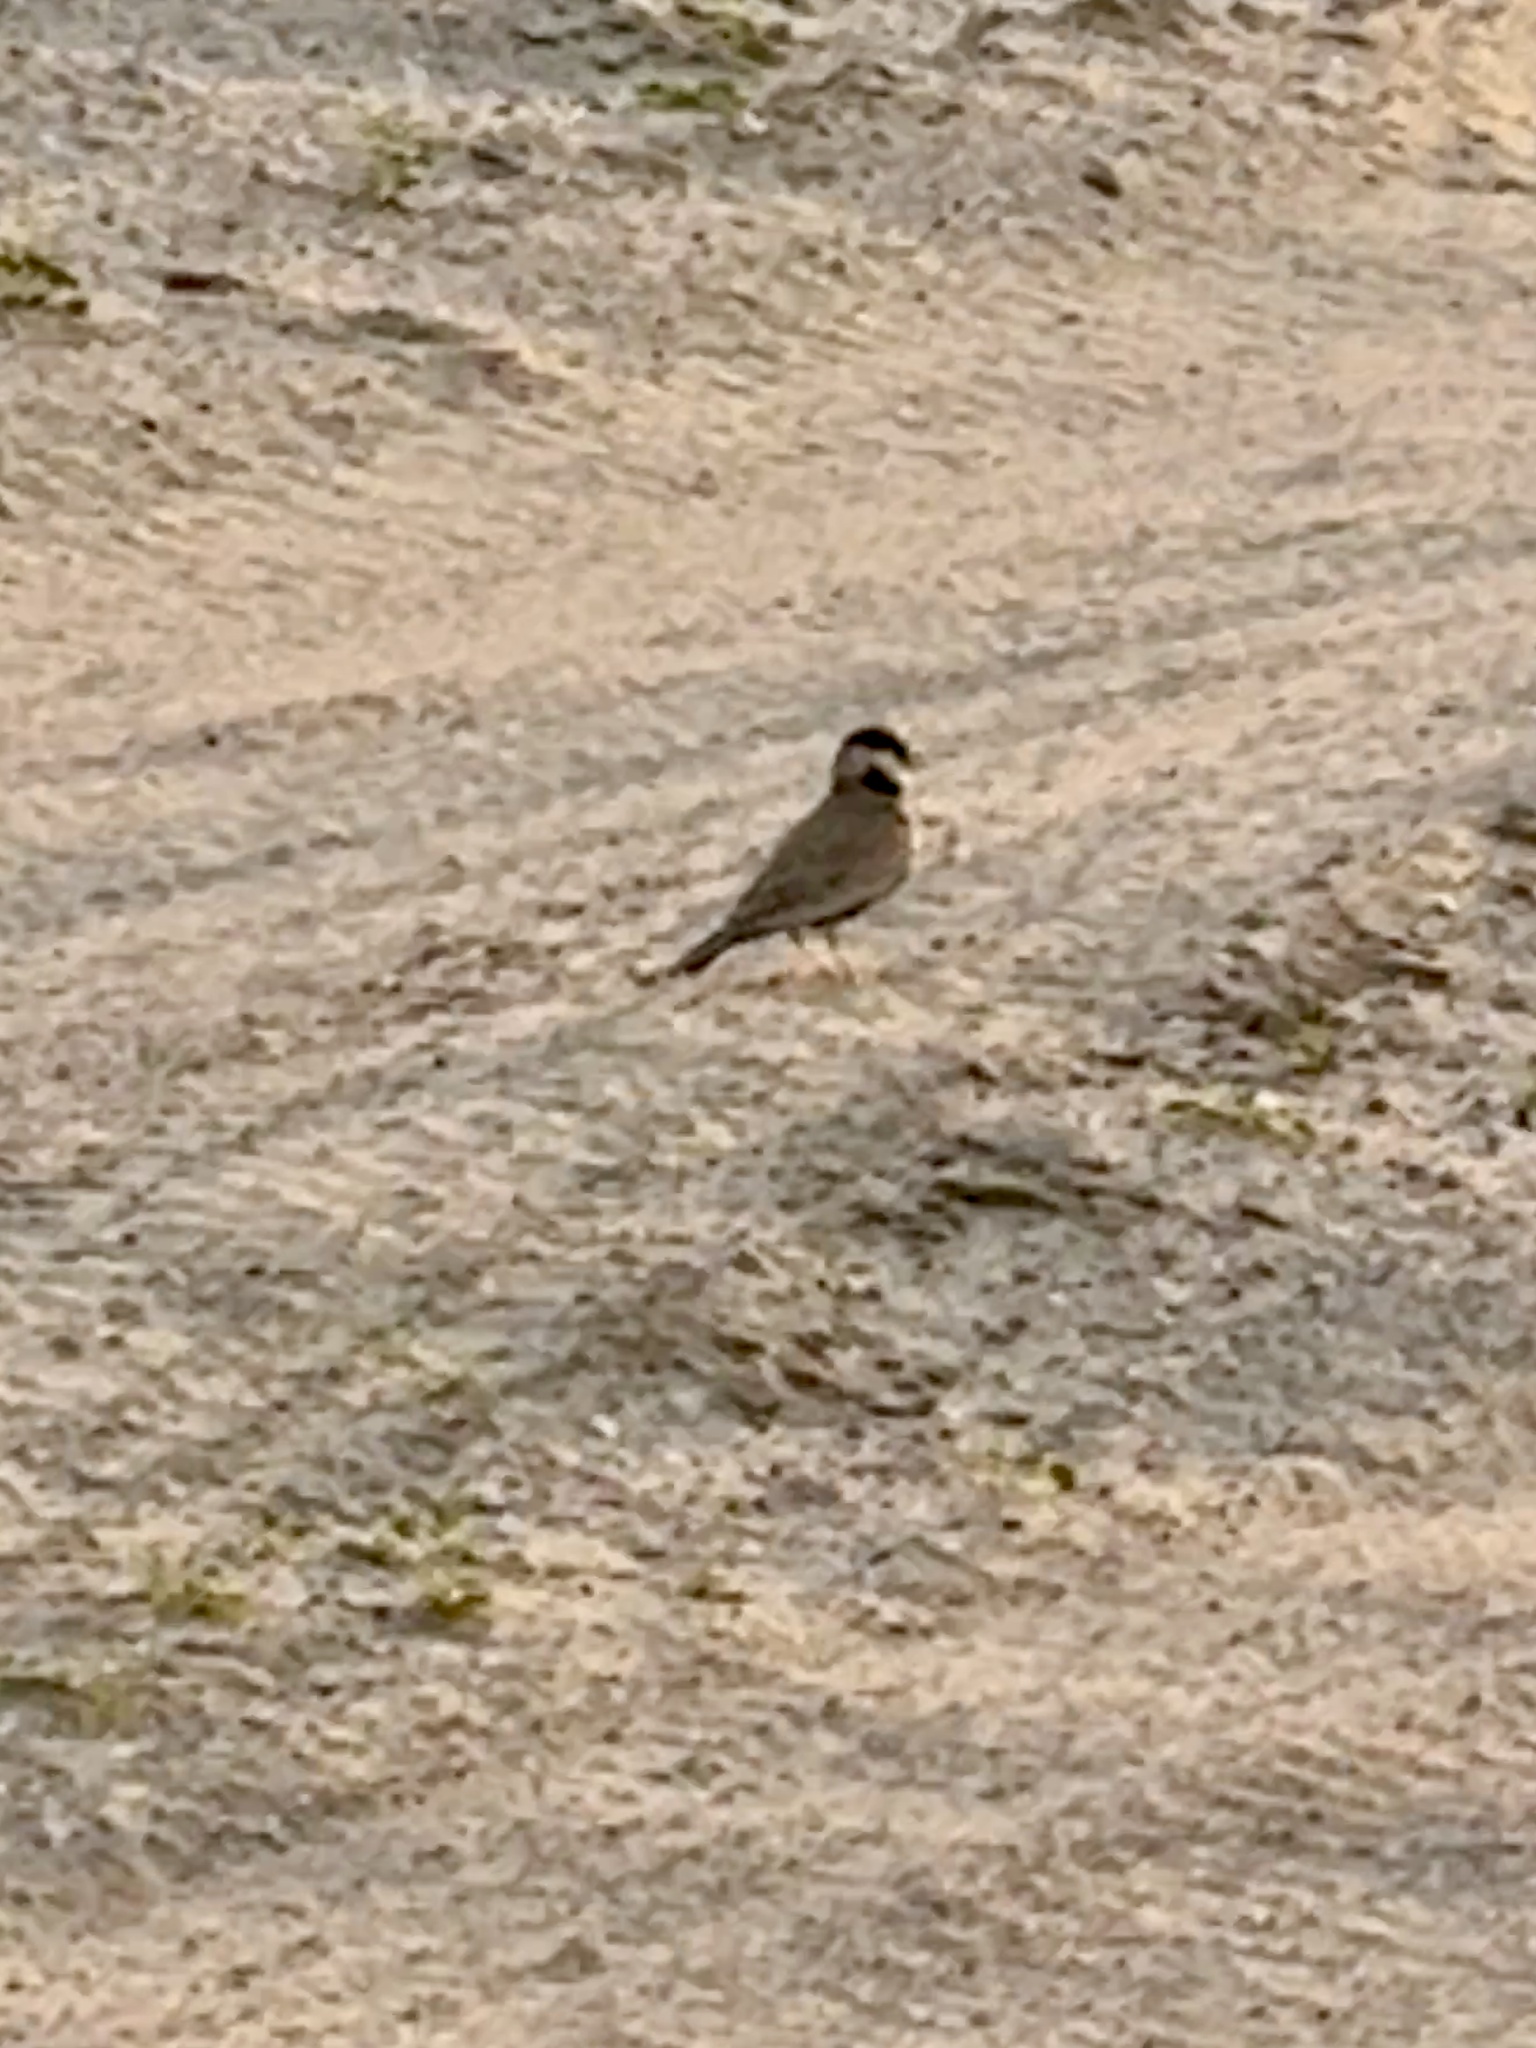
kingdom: Animalia
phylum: Chordata
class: Aves
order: Passeriformes
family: Alaudidae
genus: Eremopterix
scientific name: Eremopterix nigriceps
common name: Black-crowned sparrow-lark
